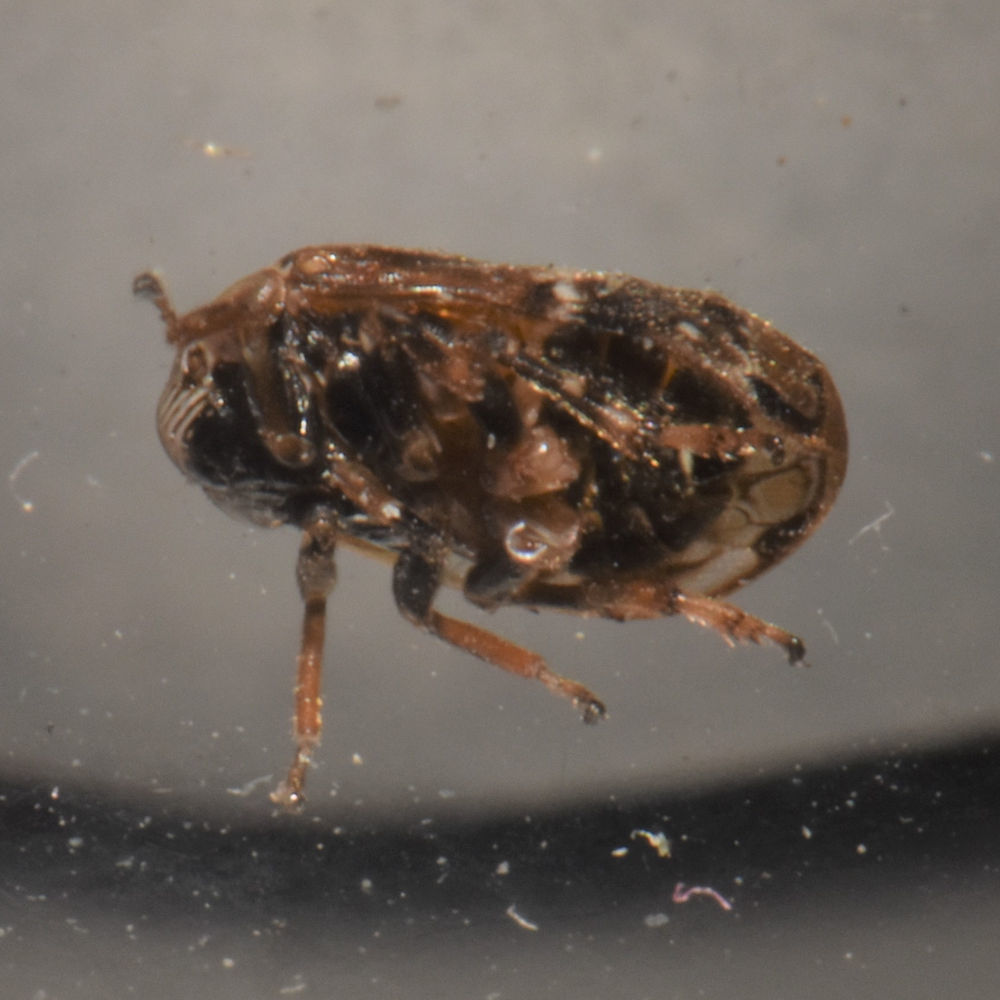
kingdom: Animalia
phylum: Arthropoda
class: Insecta
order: Hemiptera
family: Clastopteridae
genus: Clastoptera
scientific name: Clastoptera obtusa
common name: Alder spittlebug
